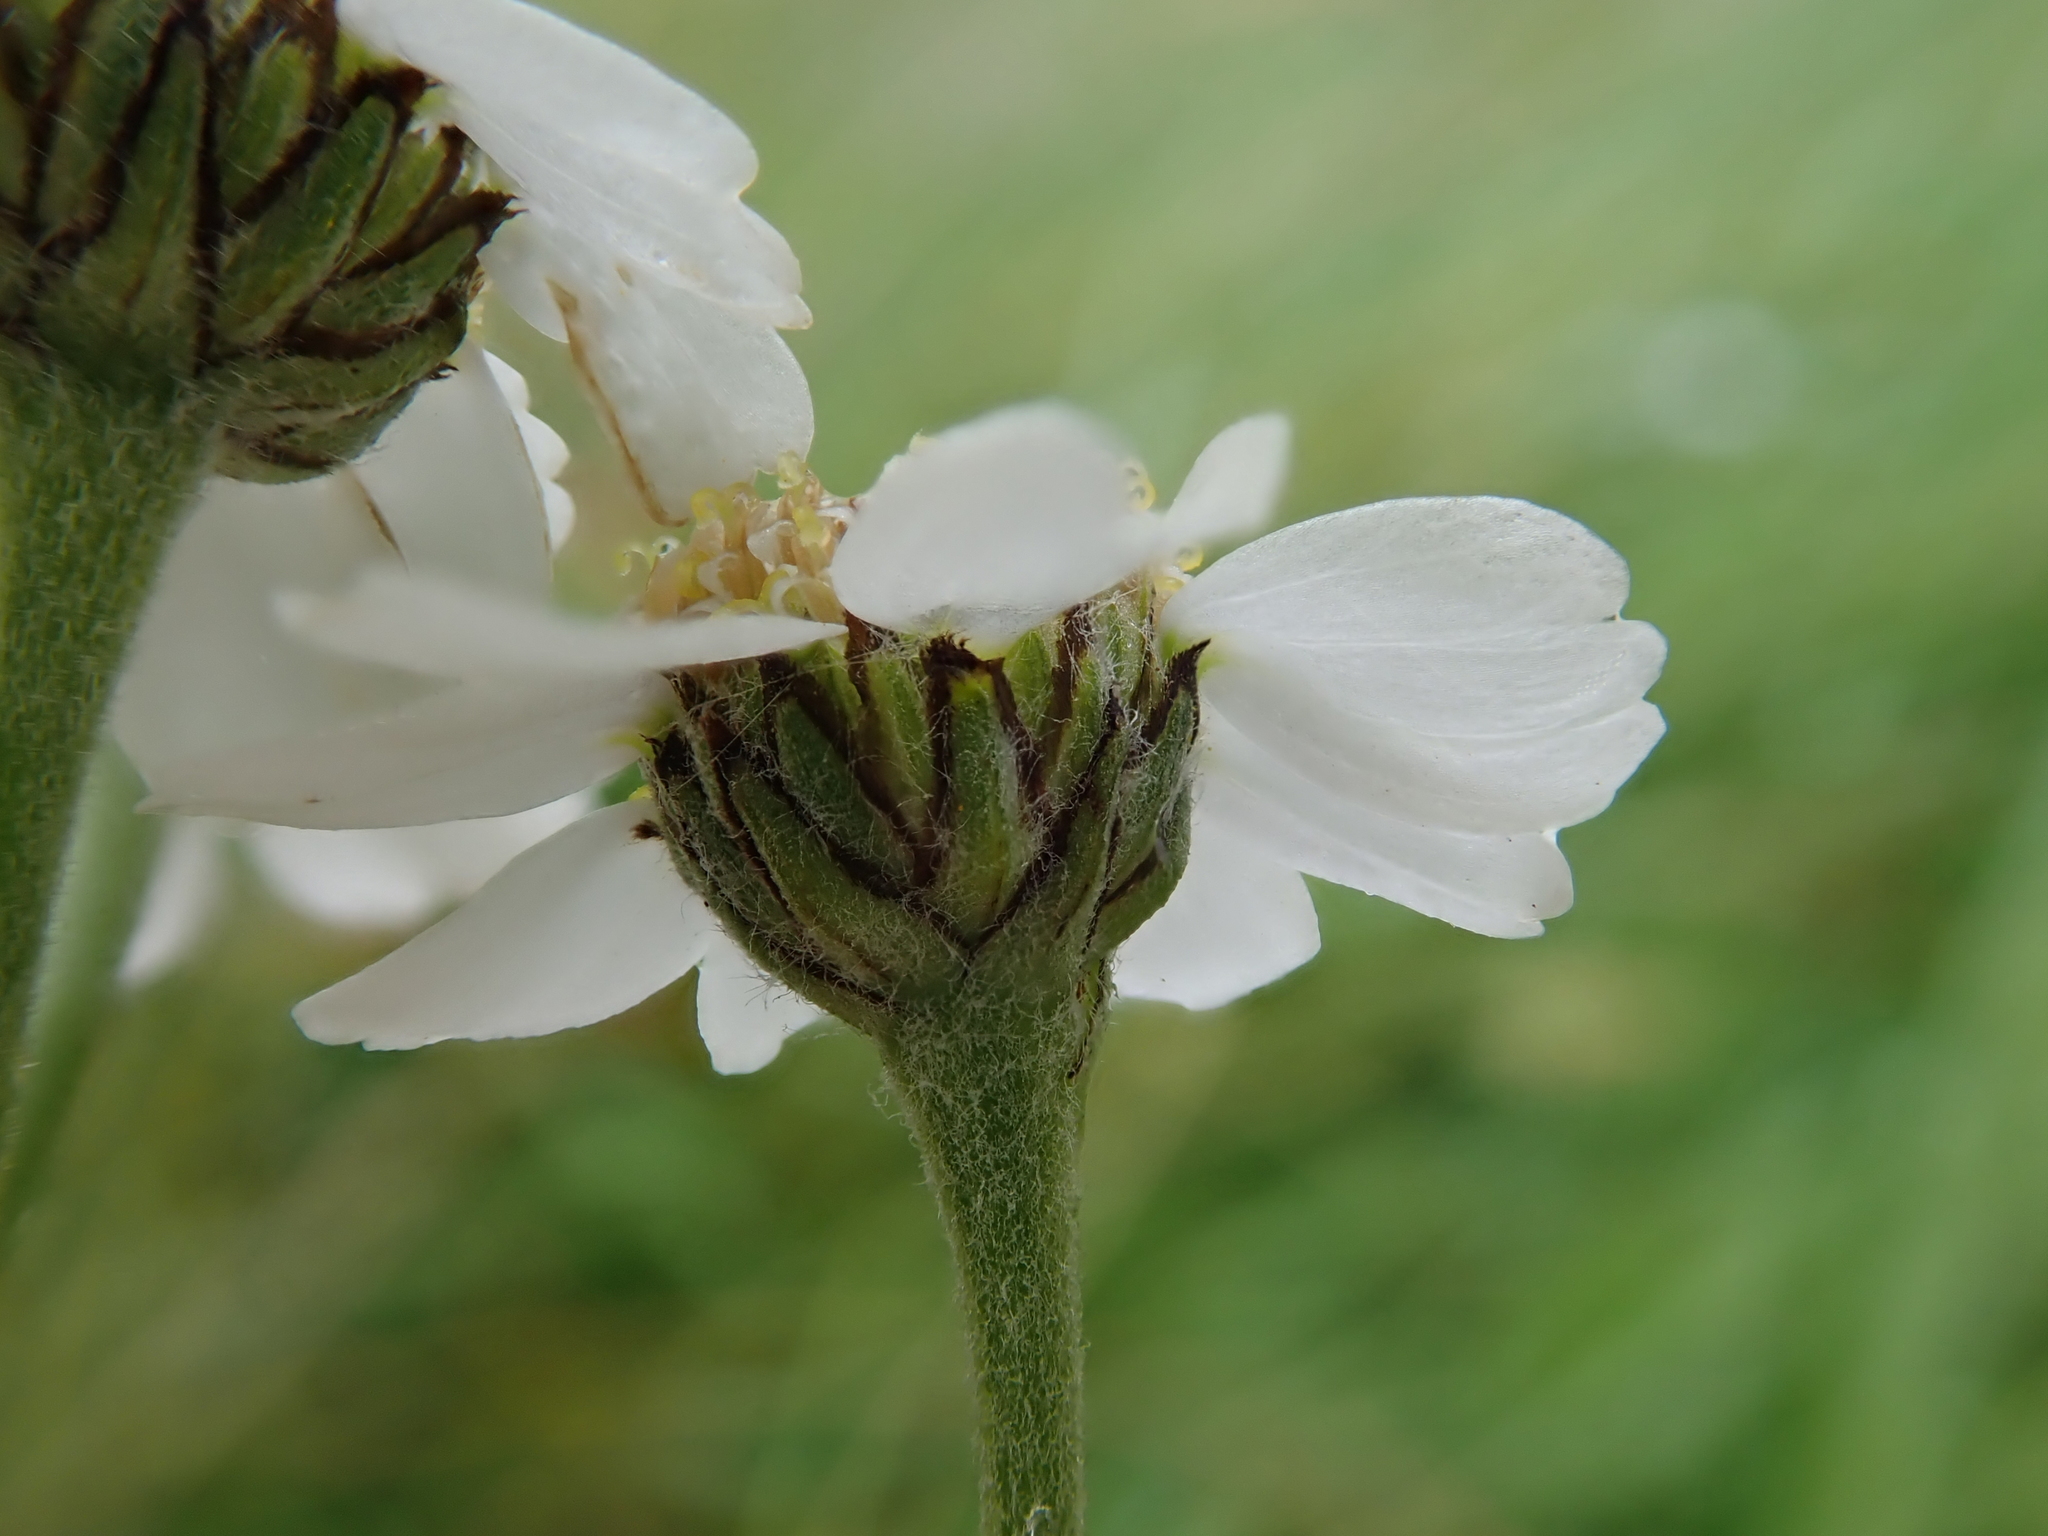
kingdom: Plantae
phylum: Tracheophyta
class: Magnoliopsida
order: Asterales
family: Asteraceae
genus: Achillea
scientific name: Achillea ptarmica
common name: Sneezeweed
